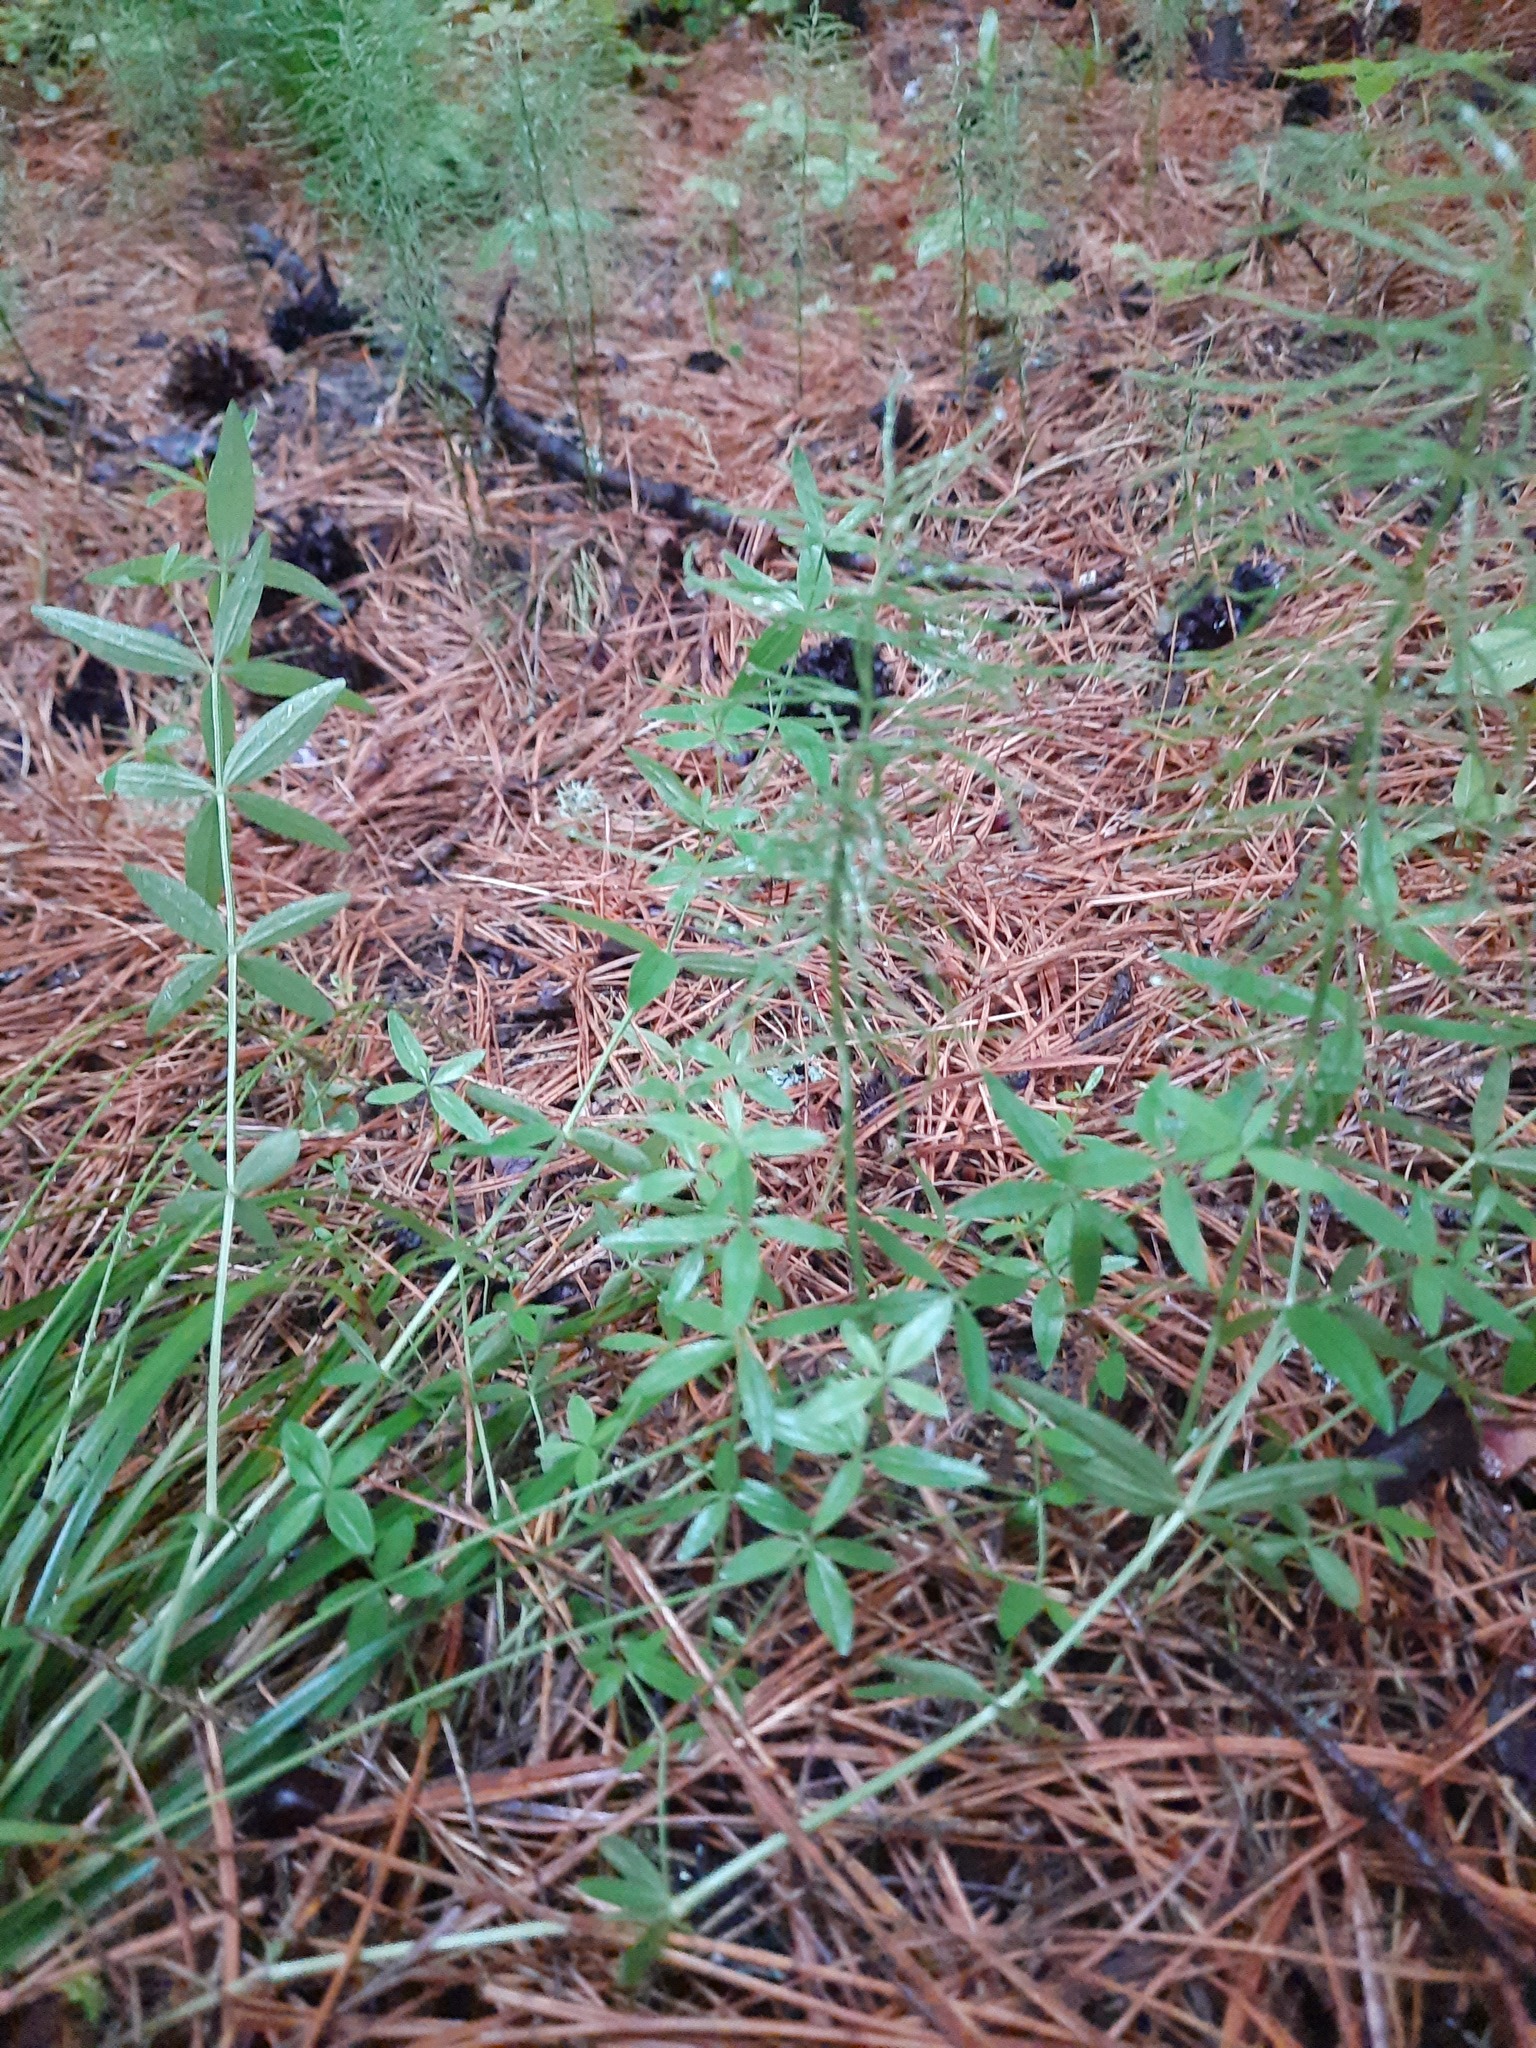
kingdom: Plantae
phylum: Tracheophyta
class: Magnoliopsida
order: Gentianales
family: Rubiaceae
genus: Galium
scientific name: Galium boreale
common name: Northern bedstraw
